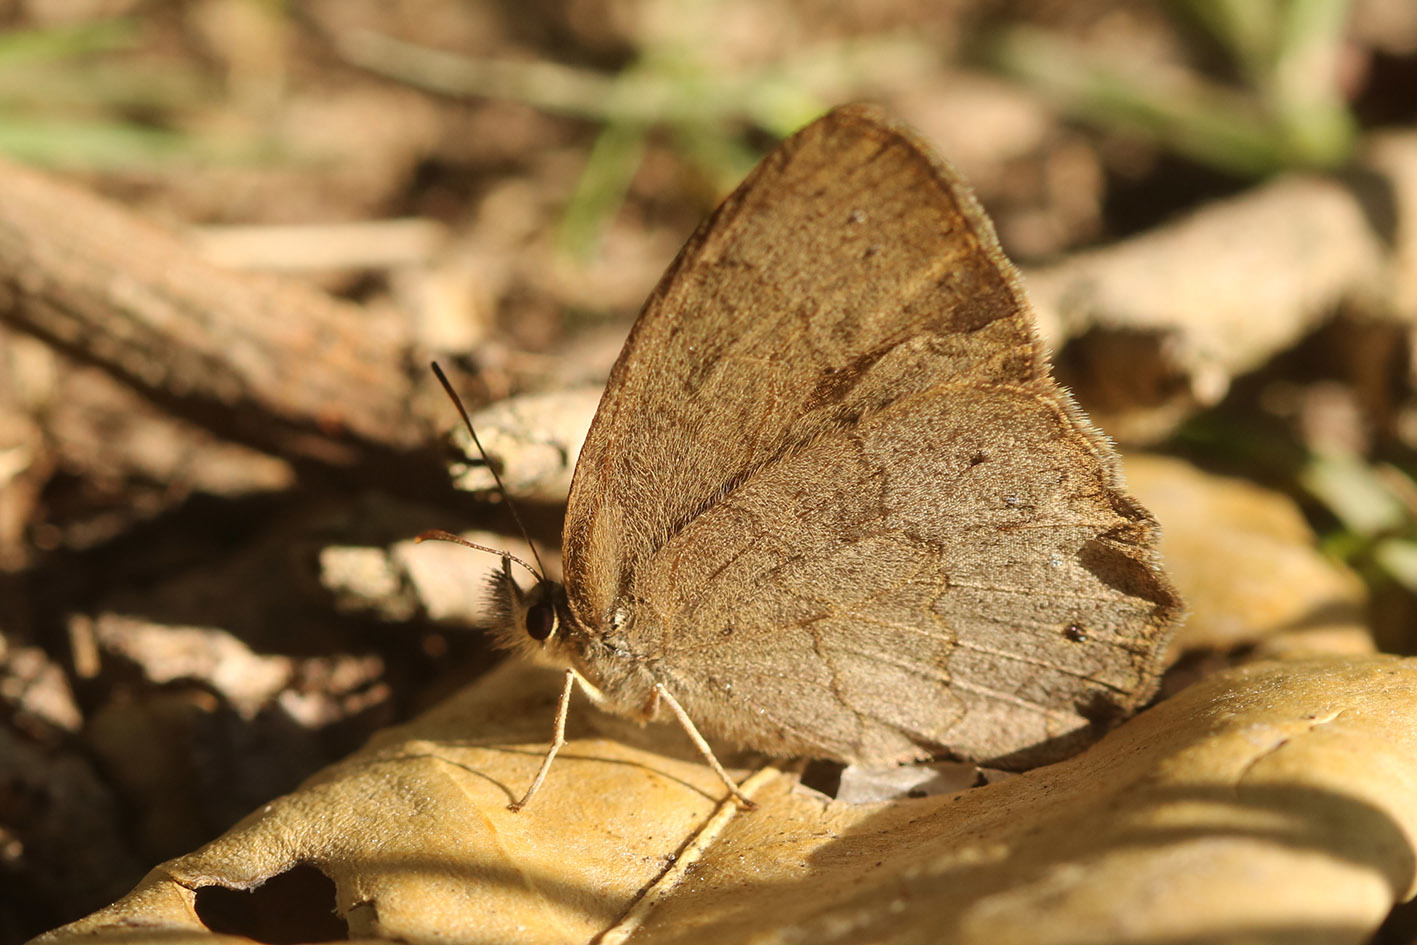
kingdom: Animalia
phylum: Arthropoda
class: Insecta
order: Lepidoptera
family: Nymphalidae
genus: Euptychia
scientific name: Euptychia
